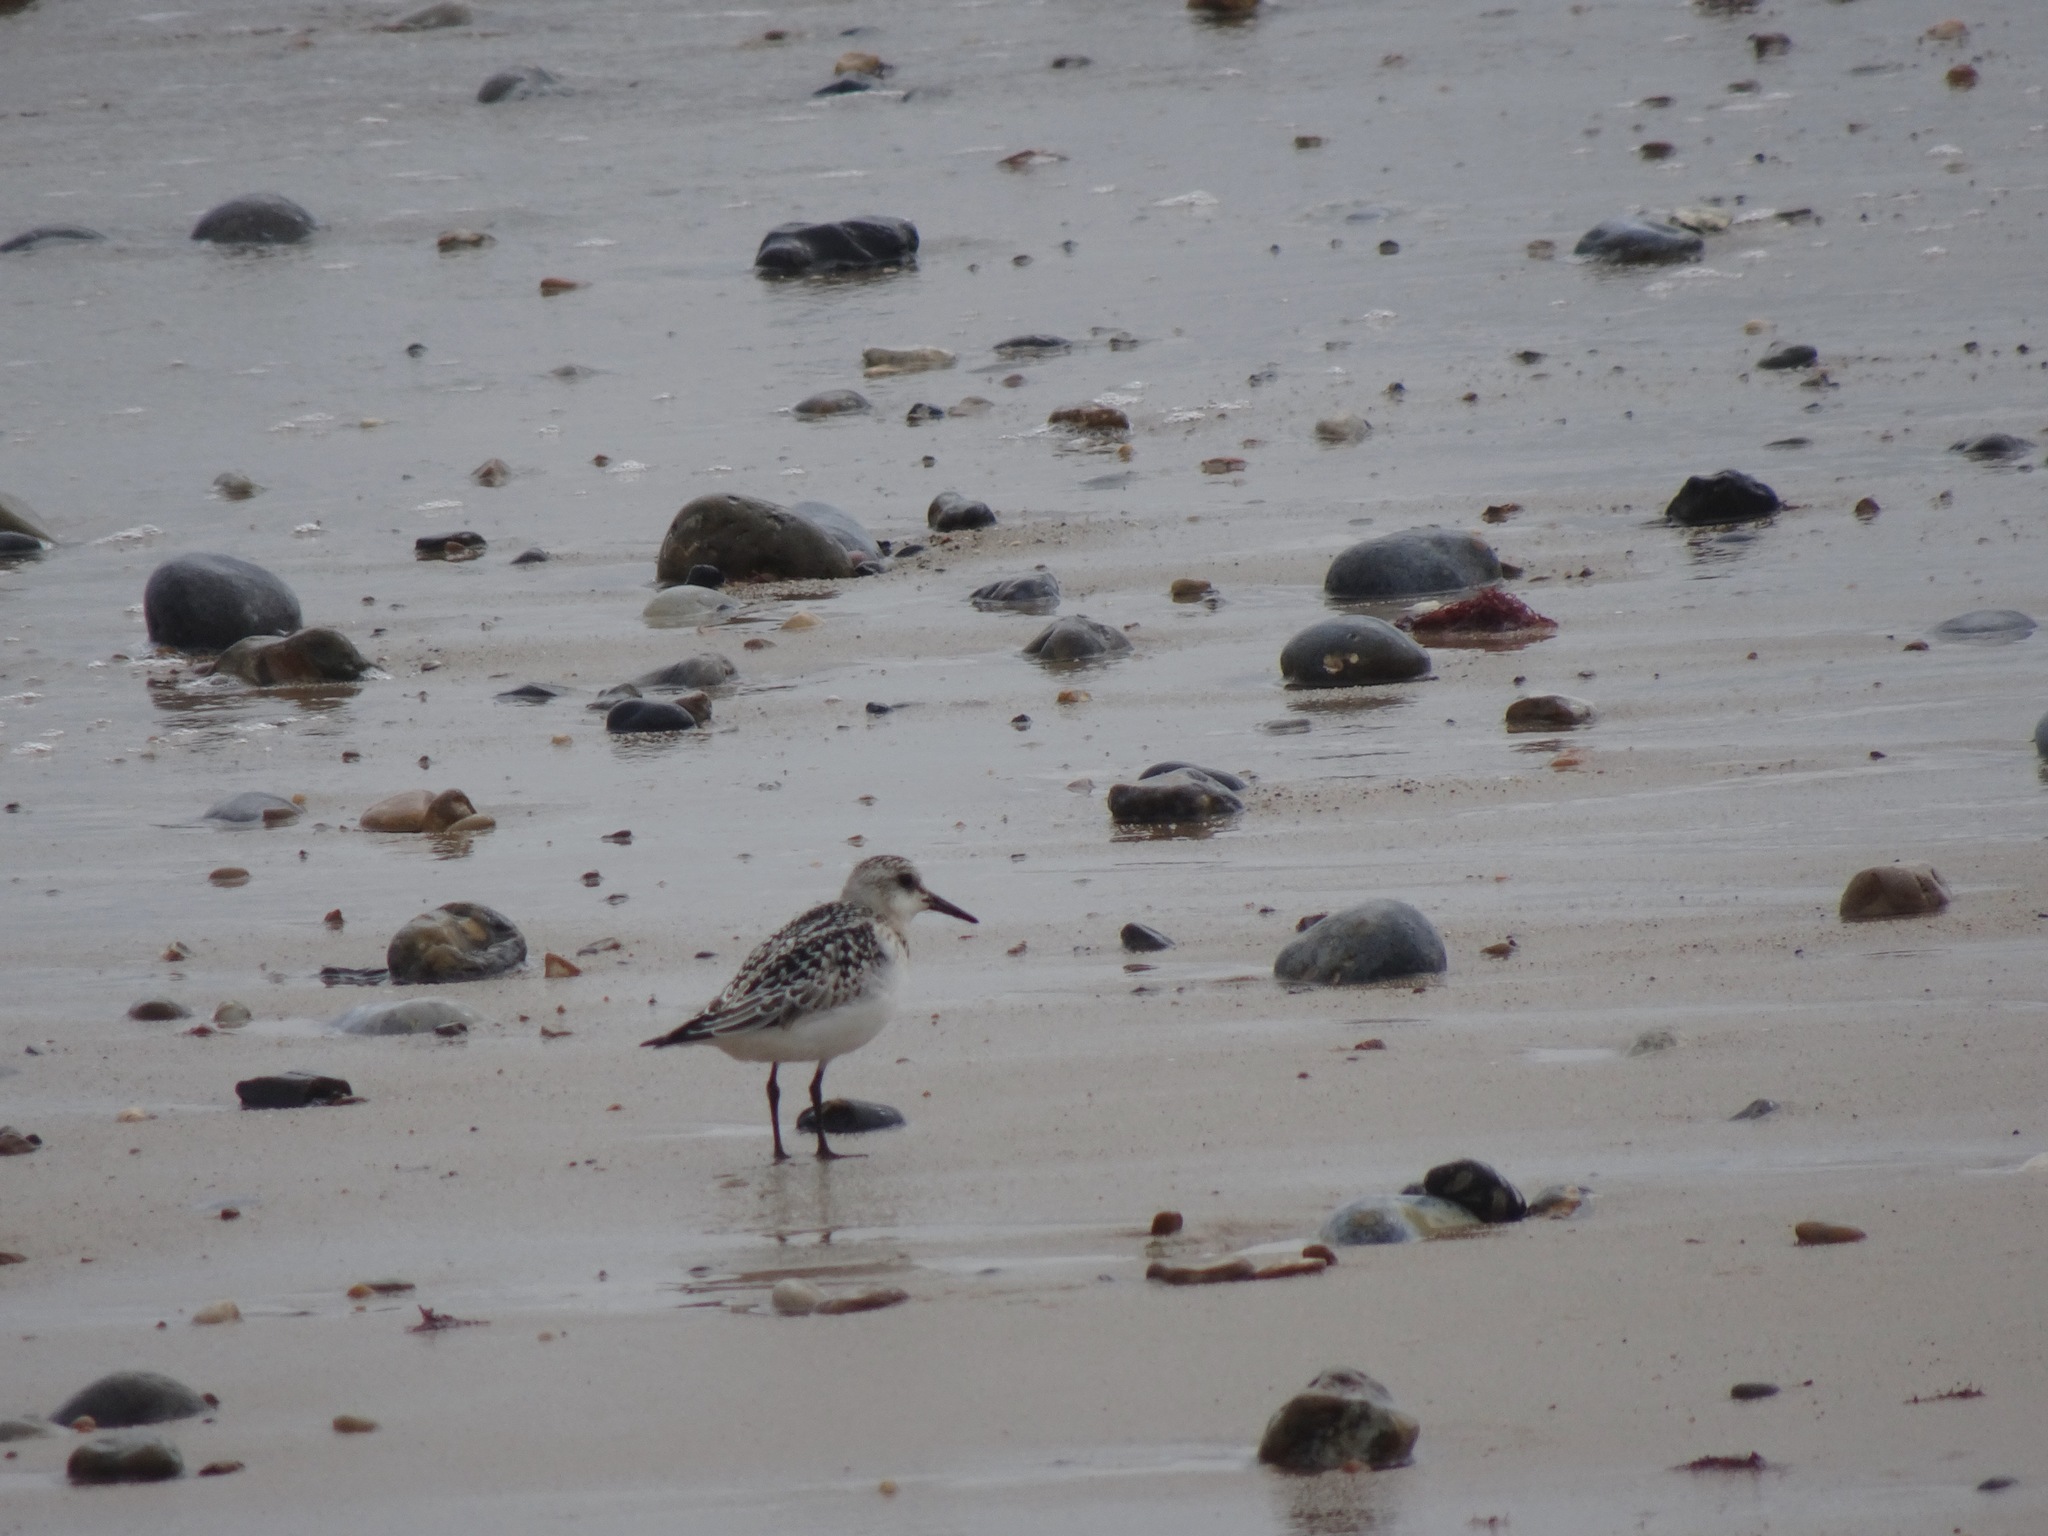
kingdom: Animalia
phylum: Chordata
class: Aves
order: Charadriiformes
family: Scolopacidae
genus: Calidris
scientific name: Calidris alba
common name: Sanderling
